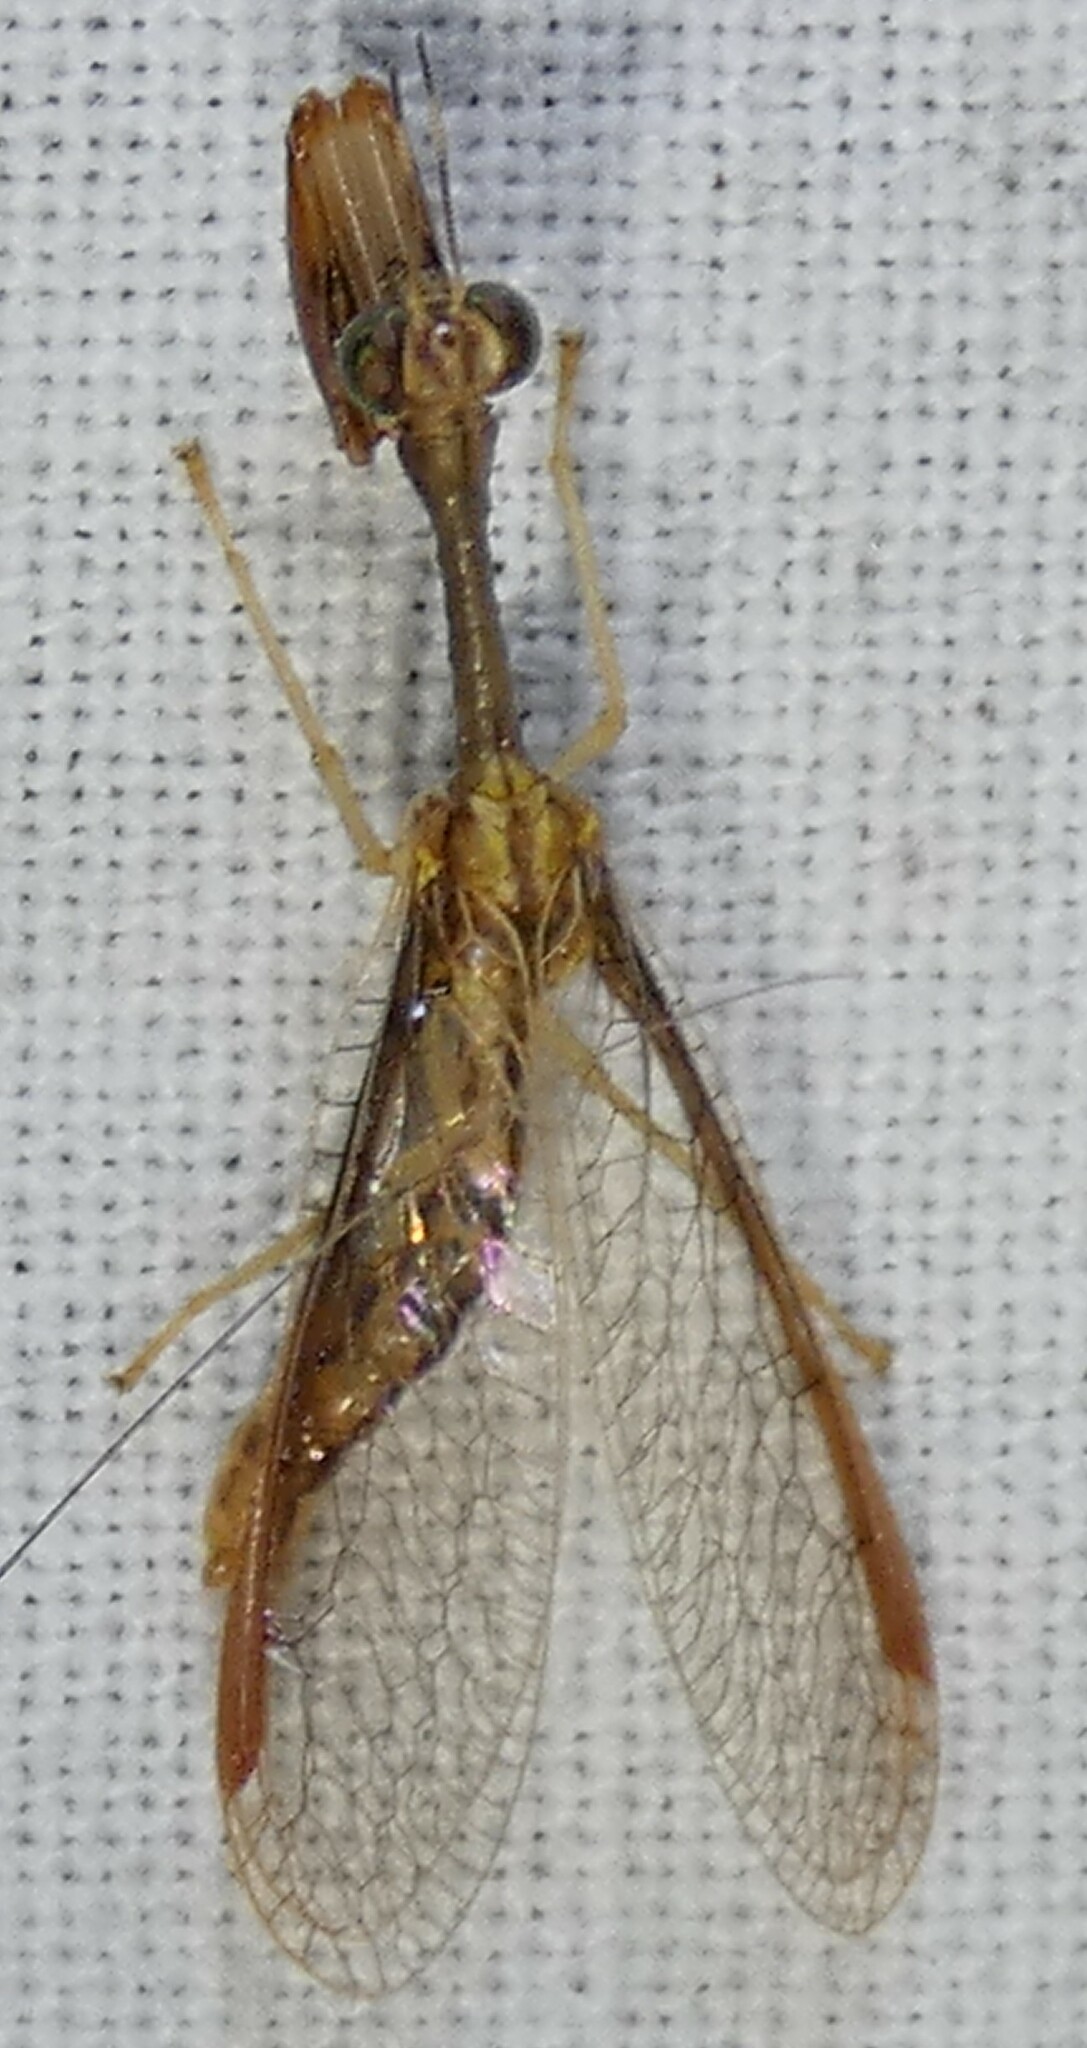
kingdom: Animalia
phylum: Arthropoda
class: Insecta
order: Neuroptera
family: Mantispidae
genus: Dicromantispa
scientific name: Dicromantispa sayi
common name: Say's mantidfly
